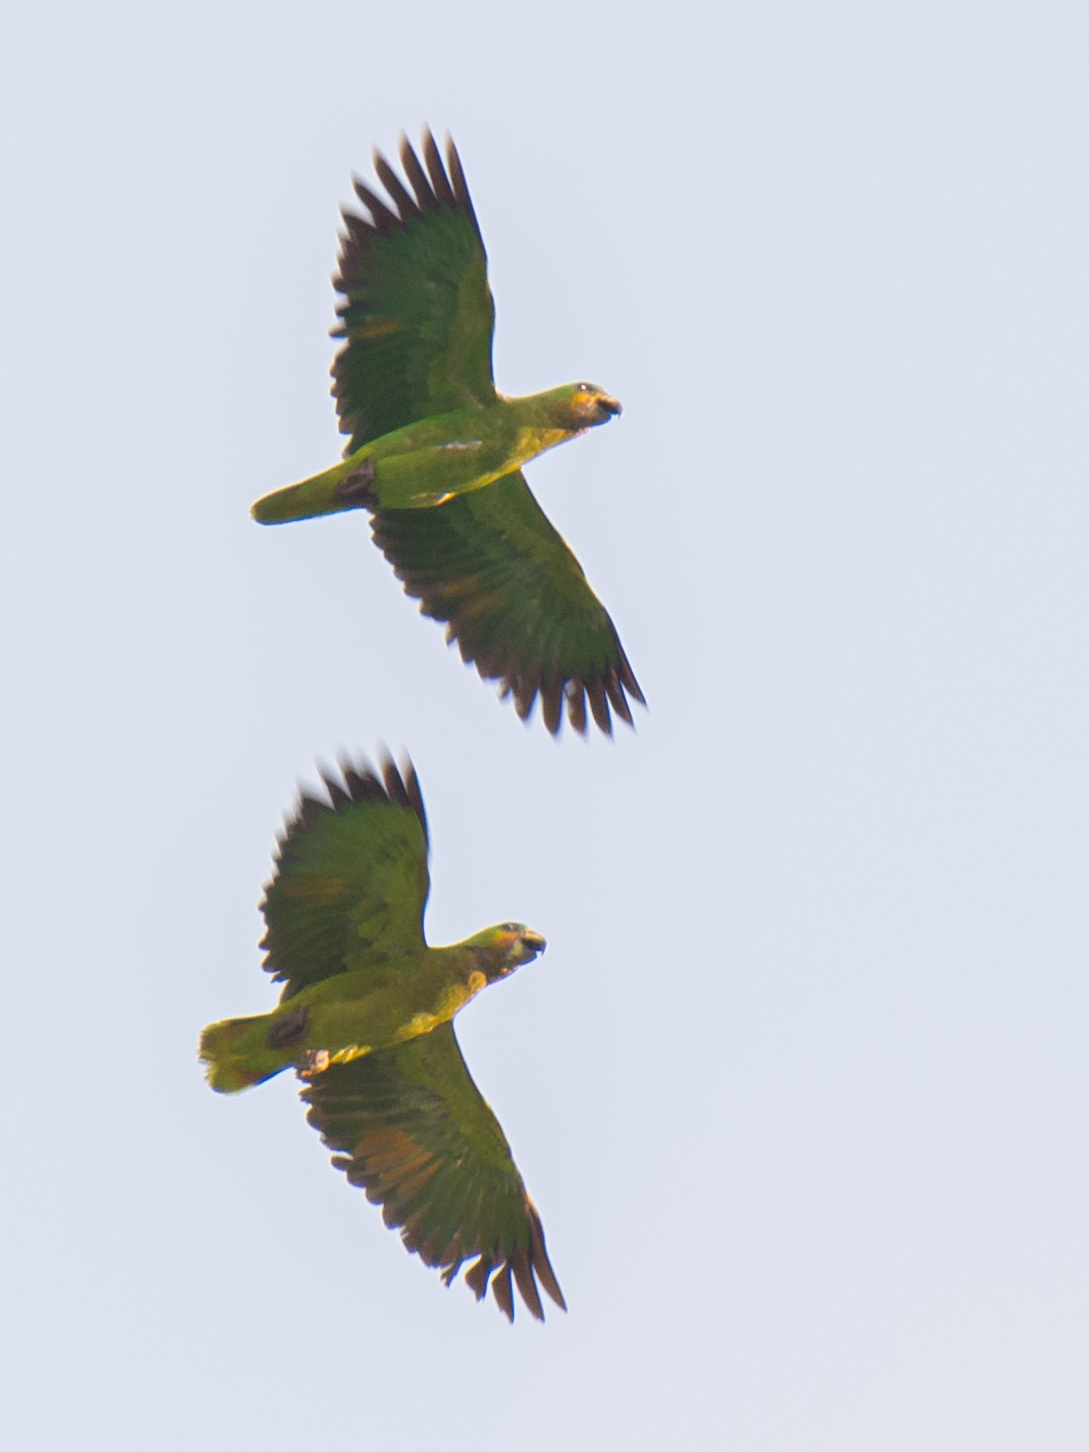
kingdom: Animalia
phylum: Chordata
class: Aves
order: Psittaciformes
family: Psittacidae
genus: Amazona
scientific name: Amazona amazonica
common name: Orange-winged amazon
